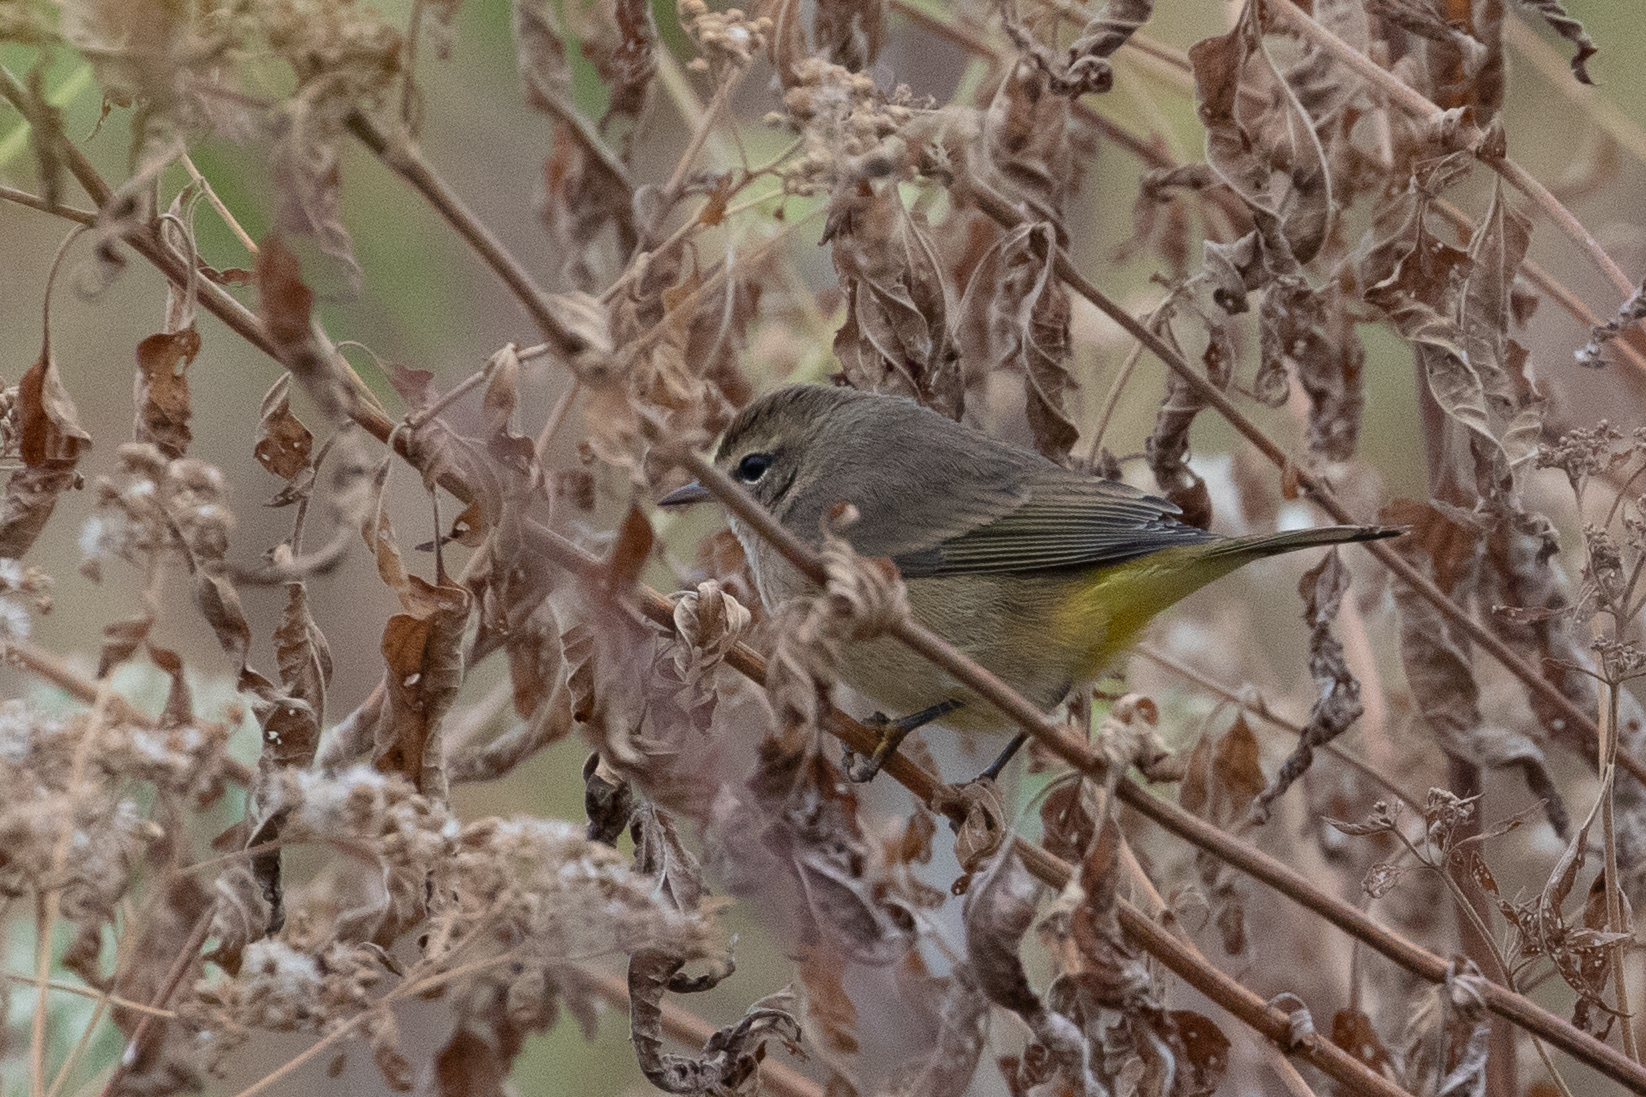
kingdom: Animalia
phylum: Chordata
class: Aves
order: Passeriformes
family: Parulidae
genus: Setophaga
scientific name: Setophaga palmarum
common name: Palm warbler
